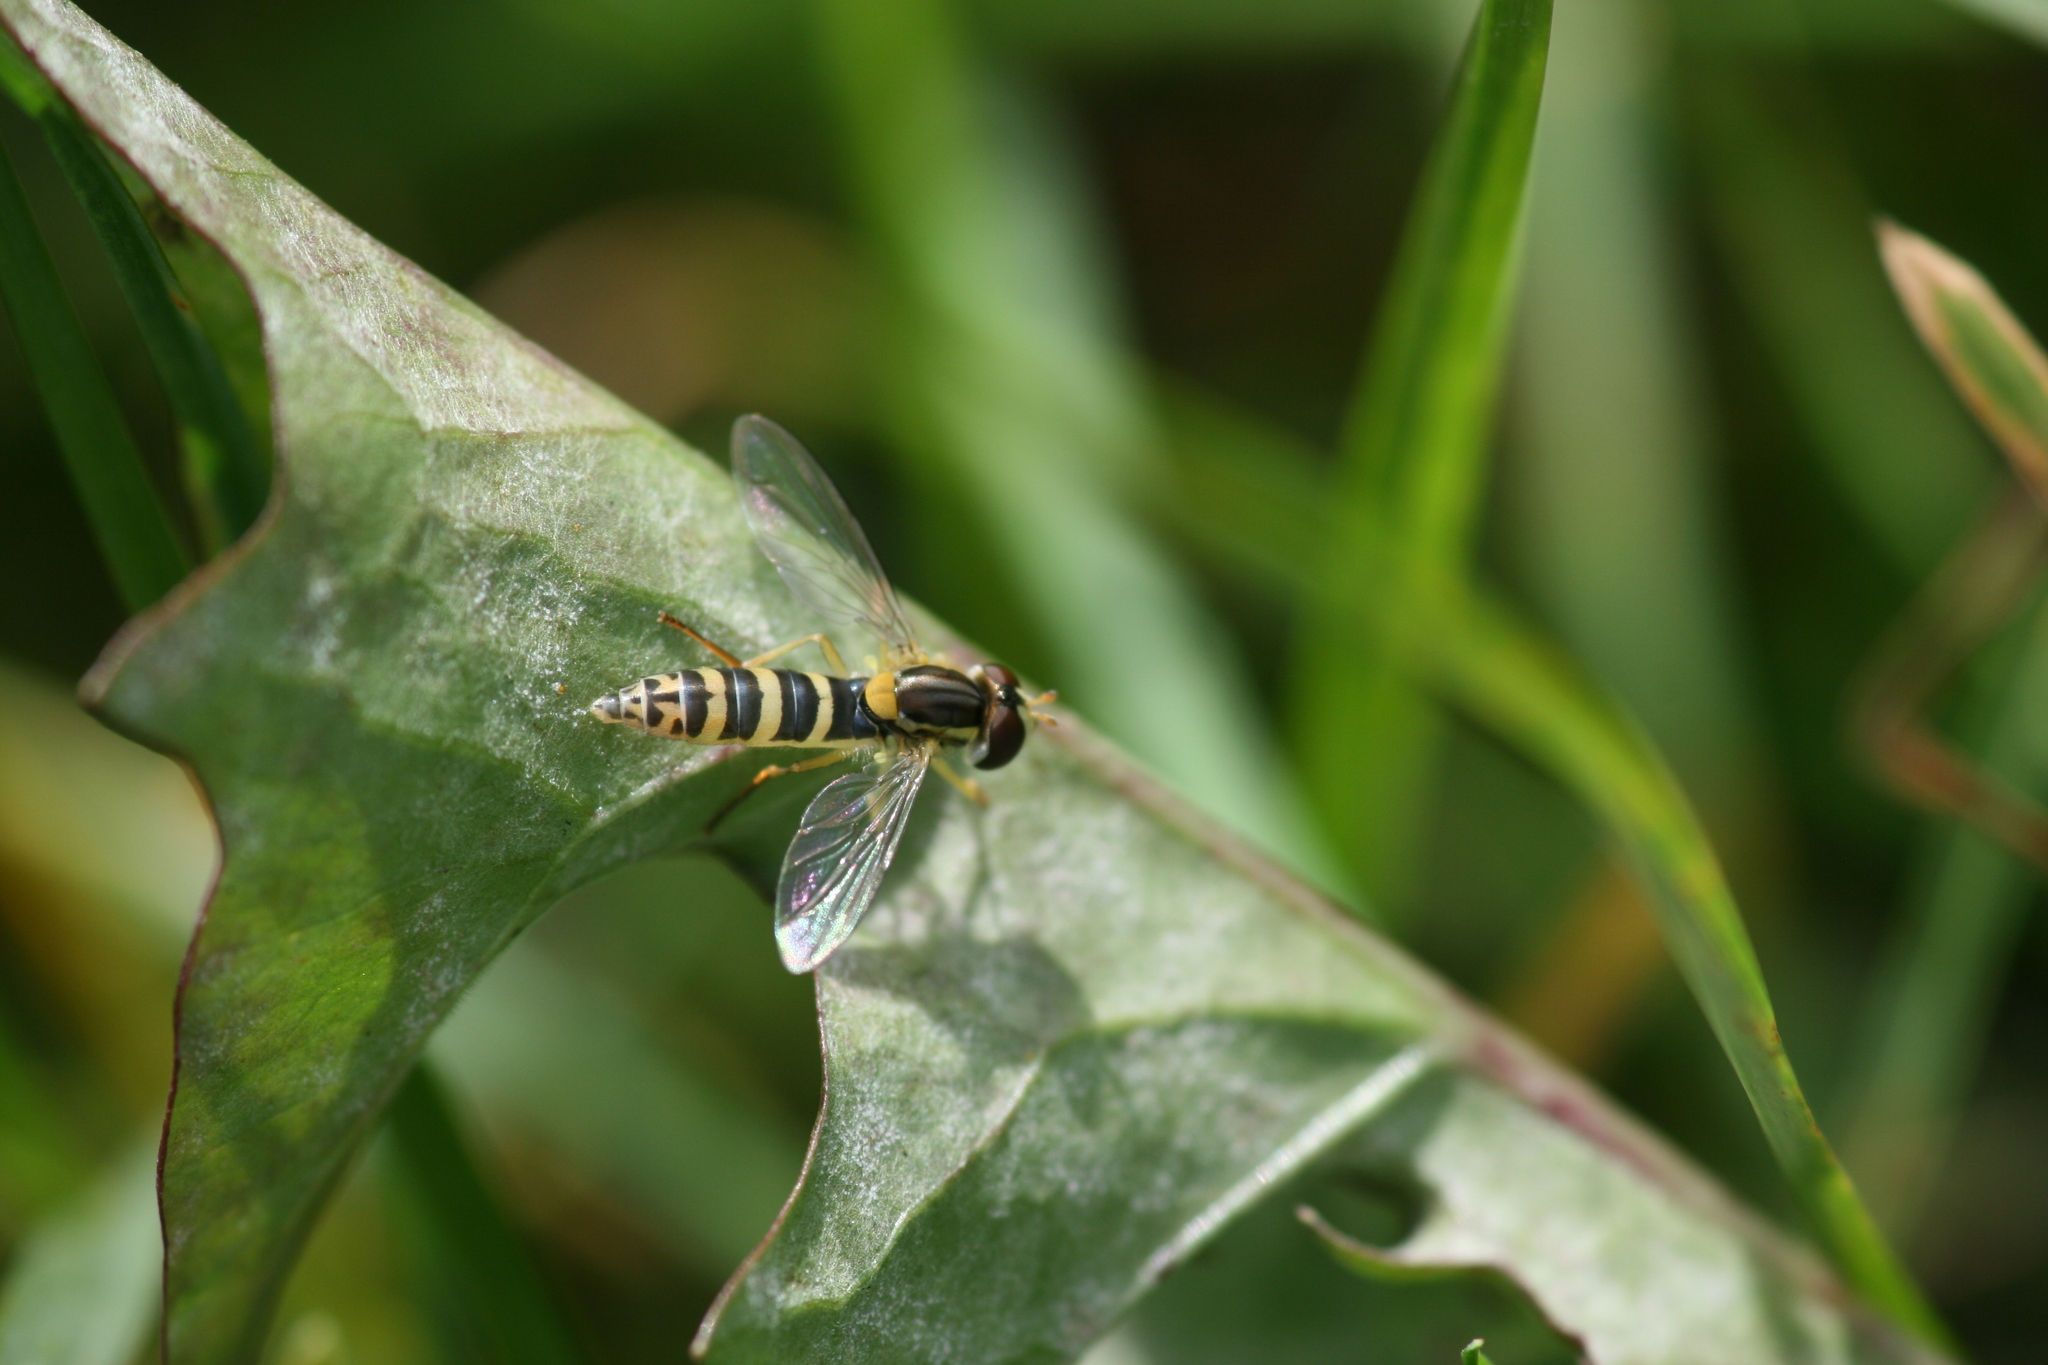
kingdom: Animalia
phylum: Arthropoda
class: Insecta
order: Diptera
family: Syrphidae
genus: Sphaerophoria
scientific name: Sphaerophoria
